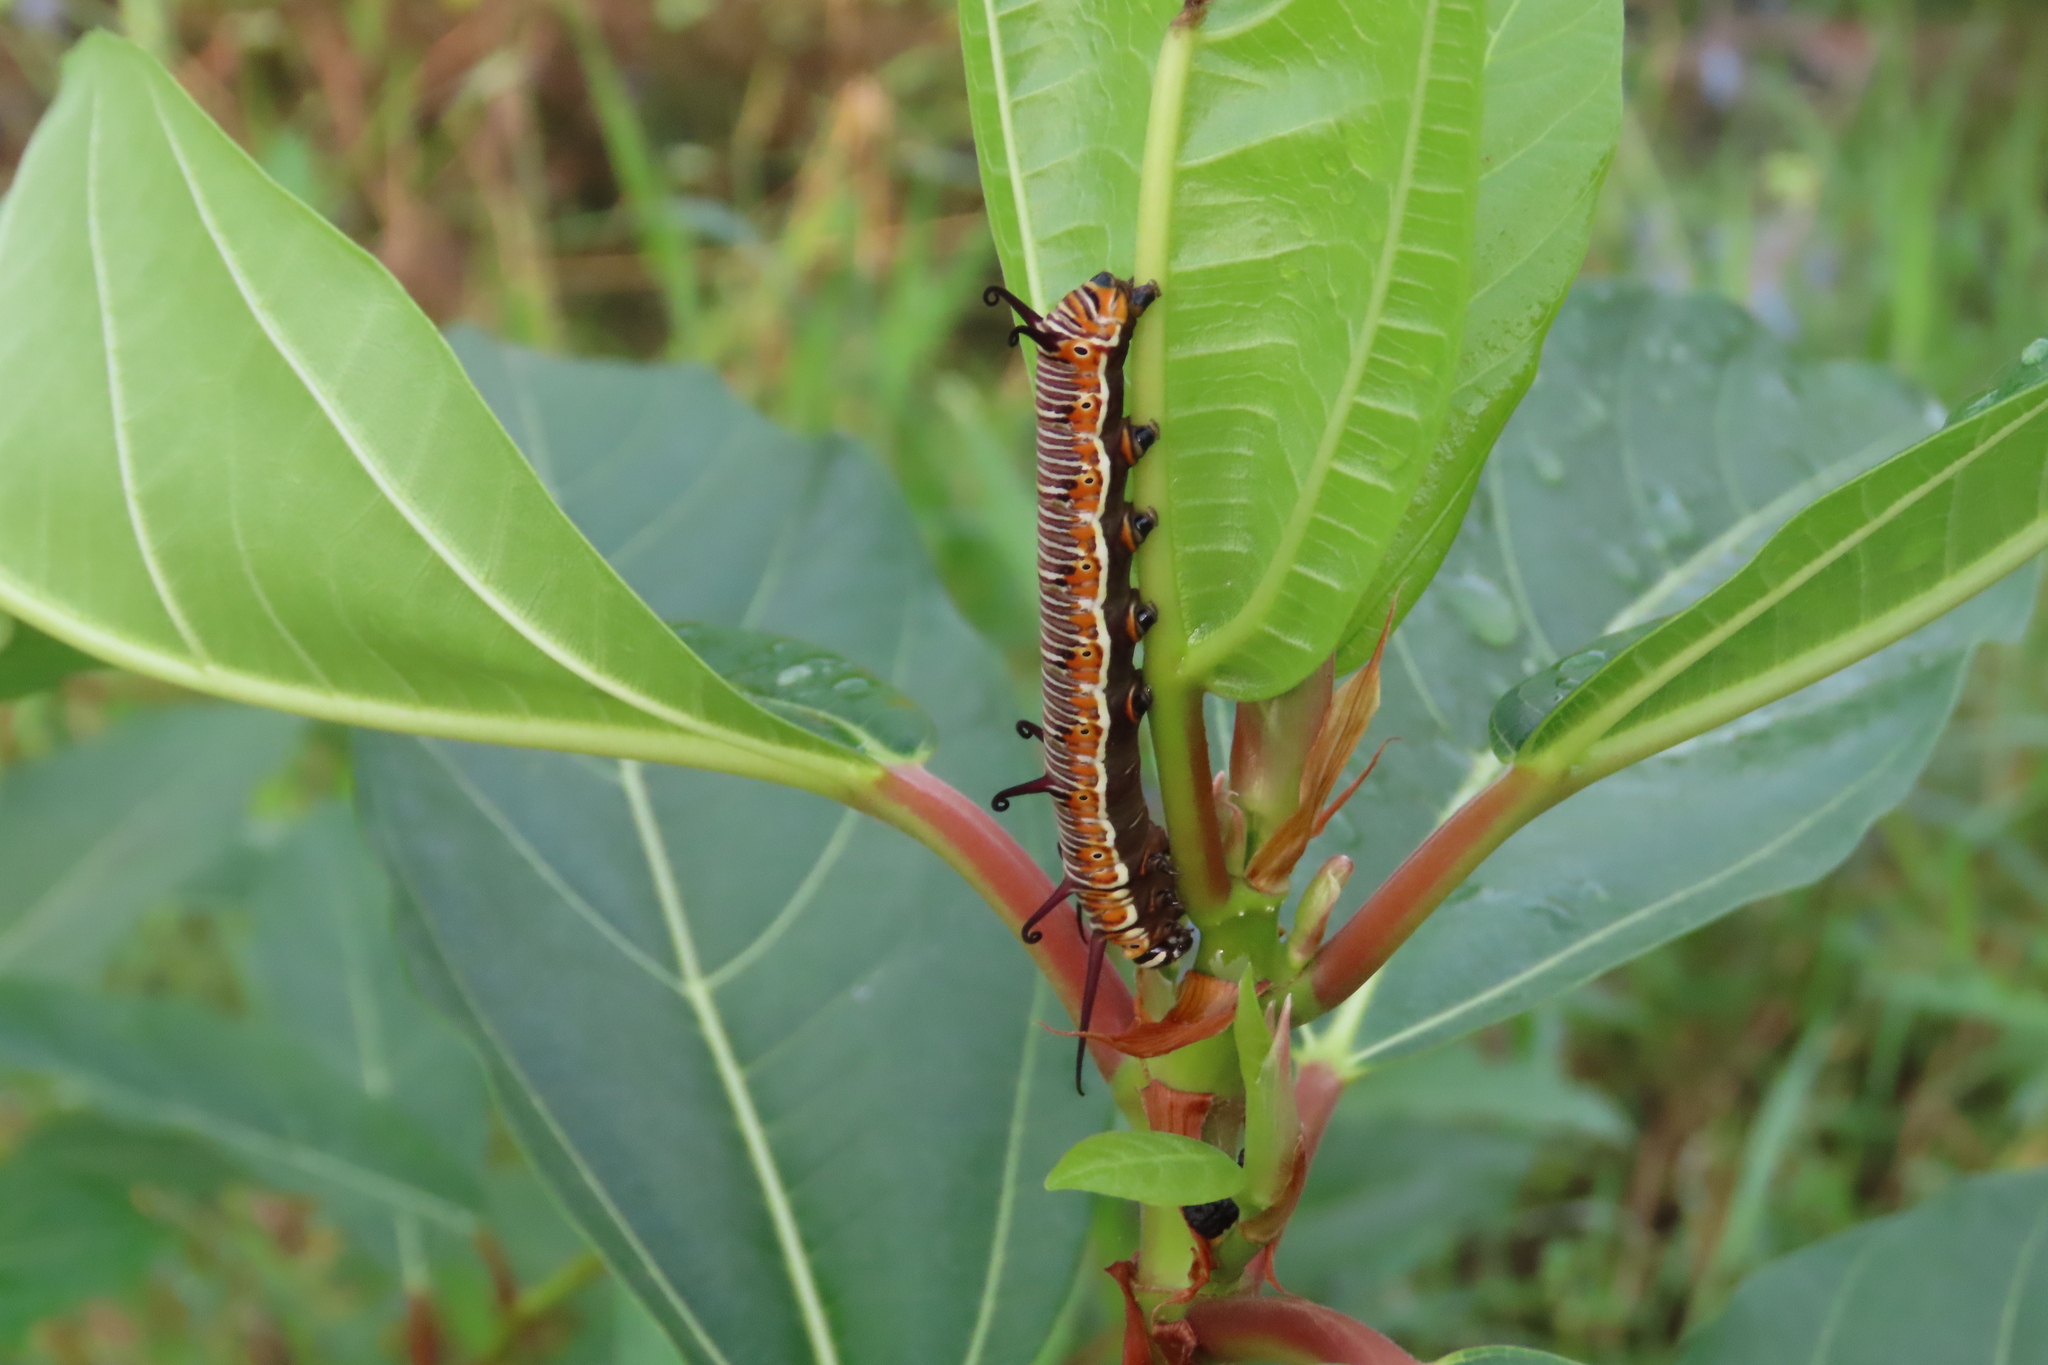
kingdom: Animalia
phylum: Arthropoda
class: Insecta
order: Lepidoptera
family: Nymphalidae
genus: Euploea
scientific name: Euploea core
